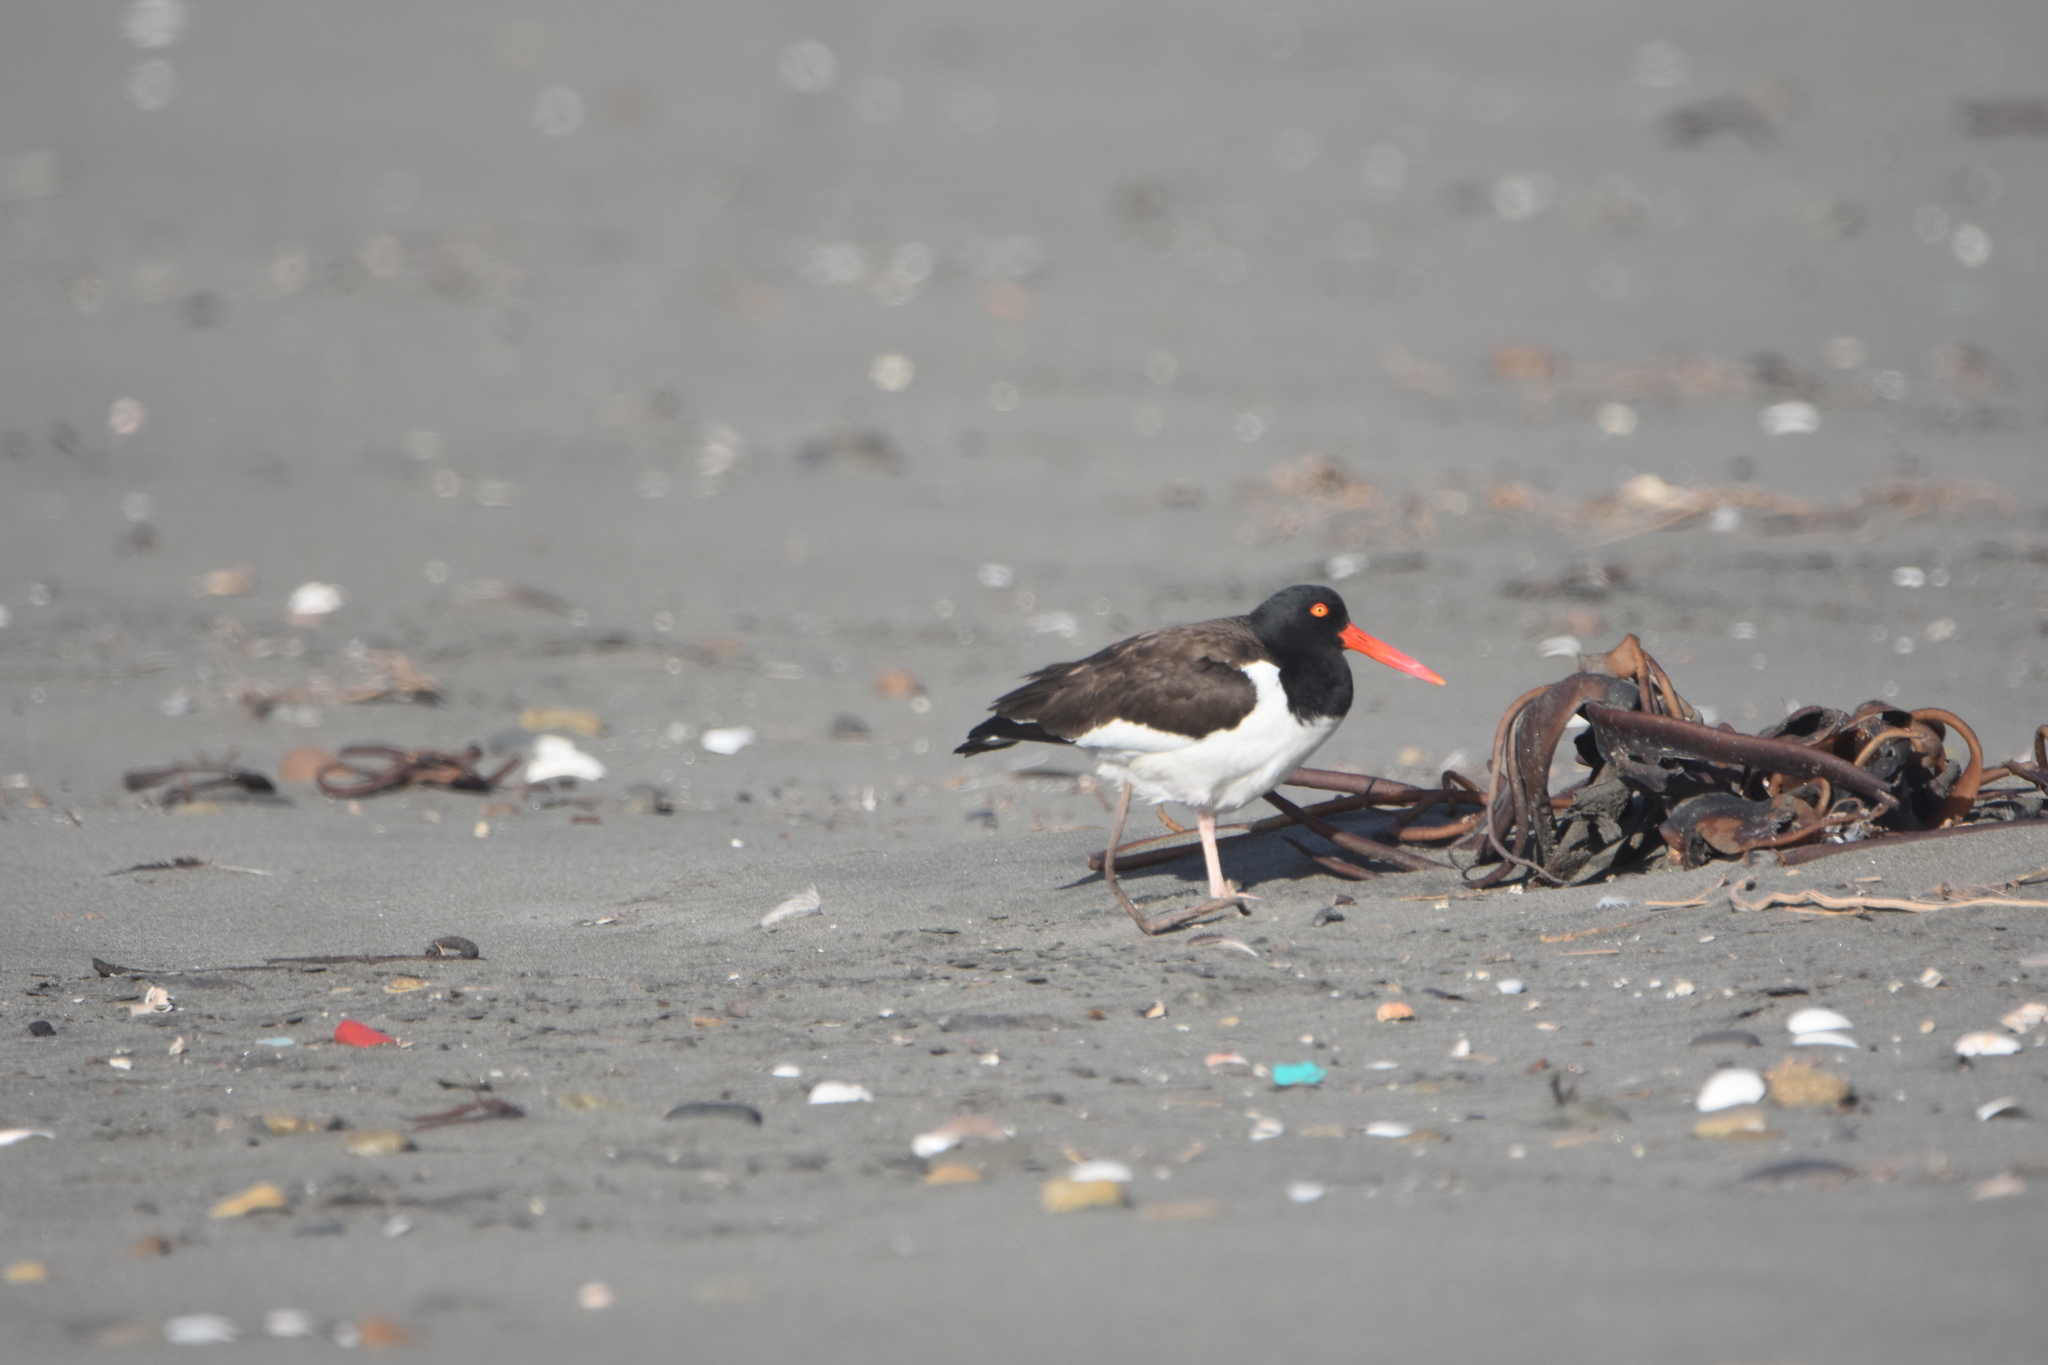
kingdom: Animalia
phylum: Chordata
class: Aves
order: Charadriiformes
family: Haematopodidae
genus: Haematopus
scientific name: Haematopus palliatus
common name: American oystercatcher
